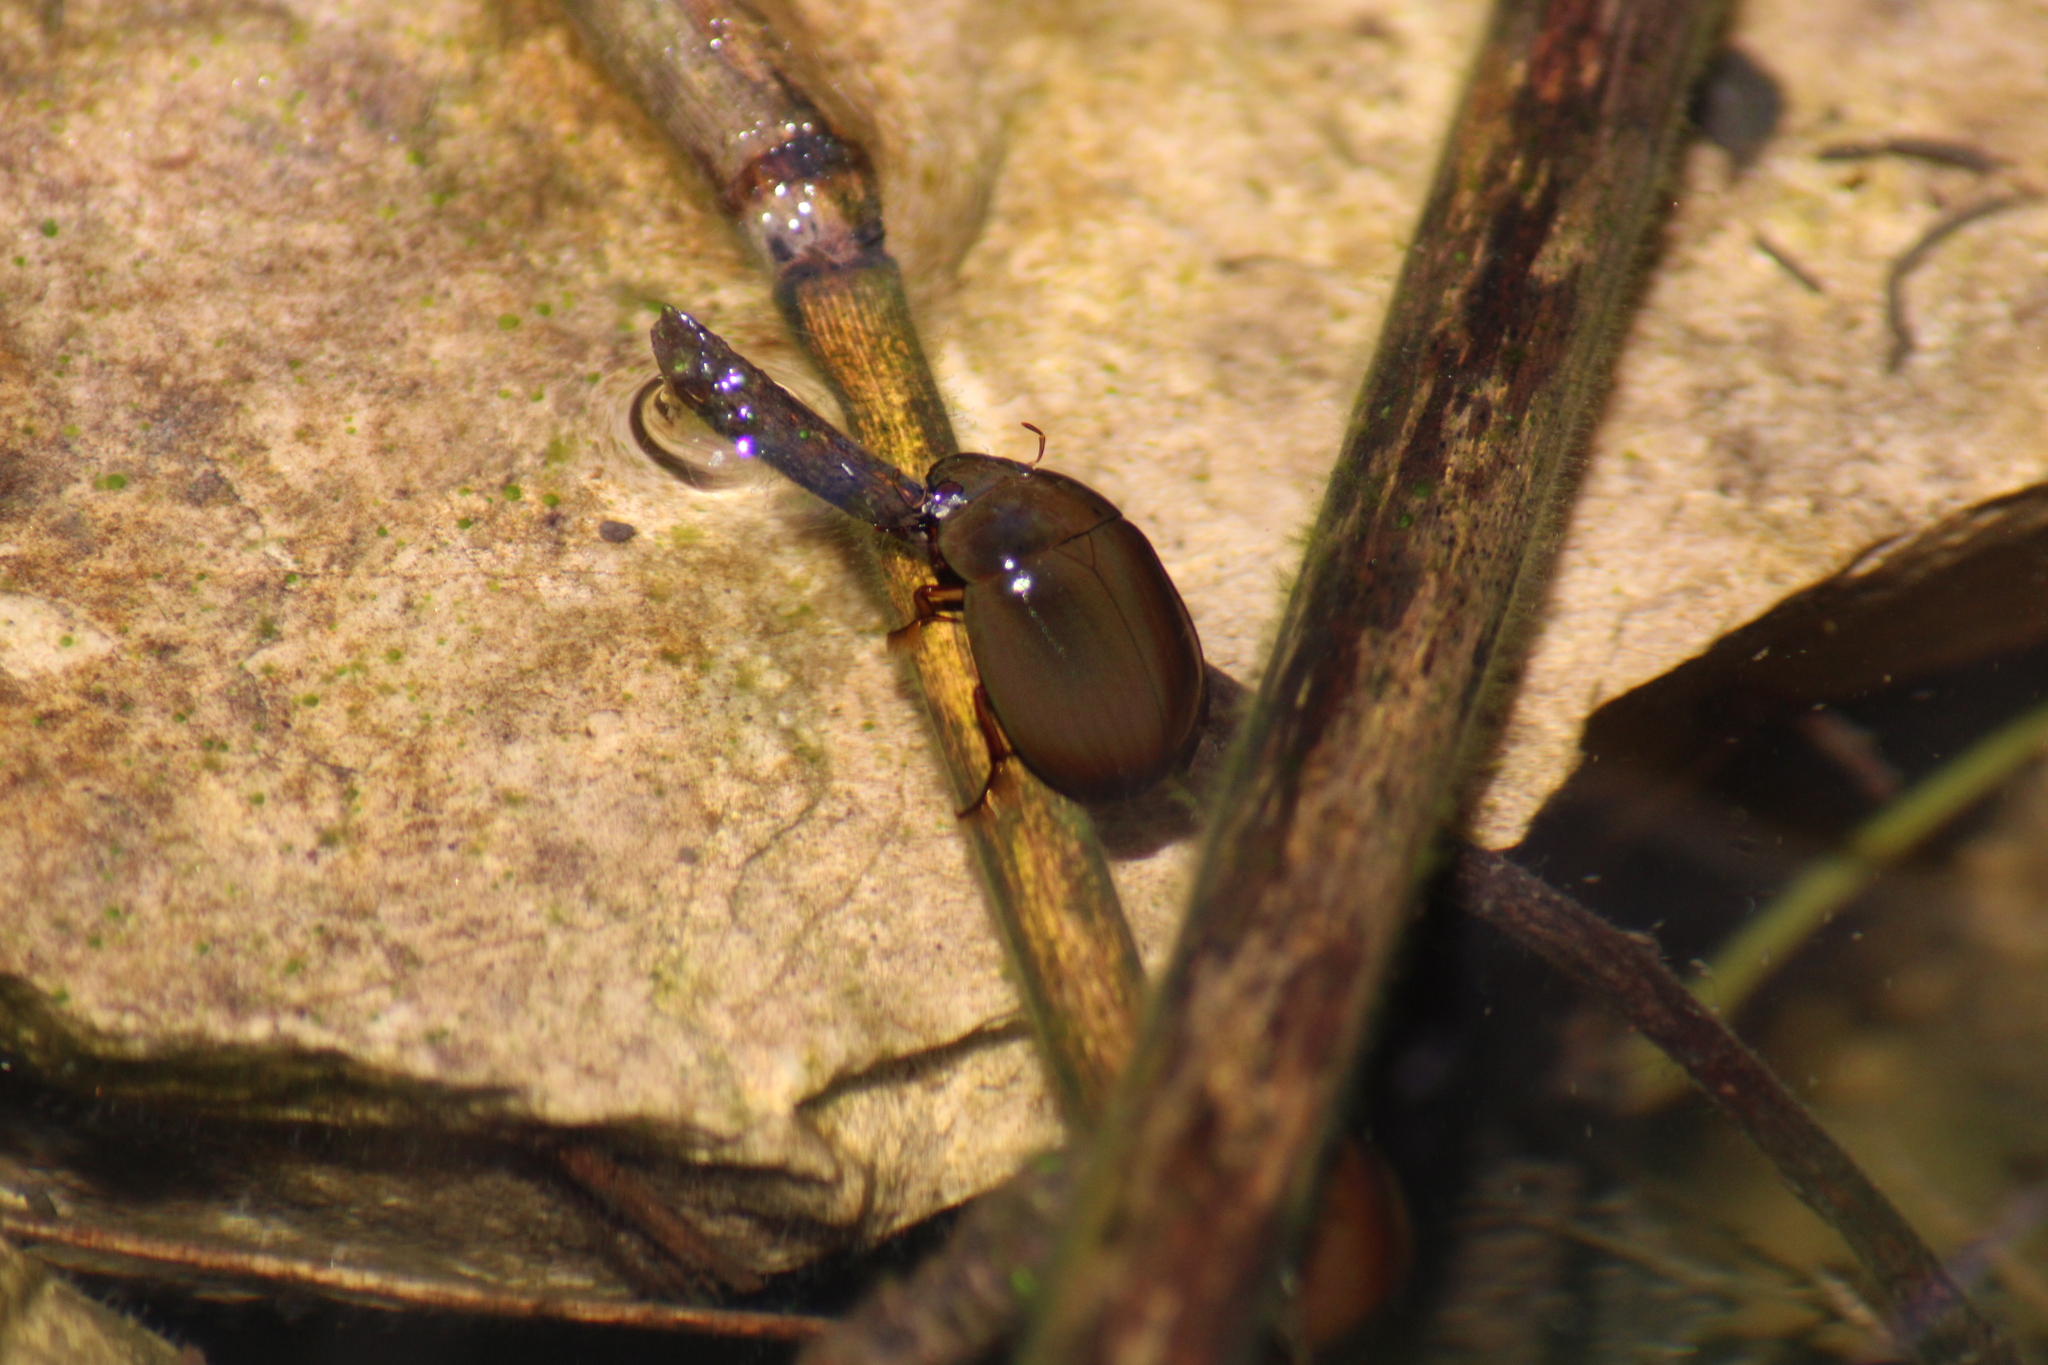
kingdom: Animalia
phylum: Arthropoda
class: Insecta
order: Coleoptera
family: Hydrophilidae
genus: Hydrochara
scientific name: Hydrochara caraboides
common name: Lesser silver water beetle
